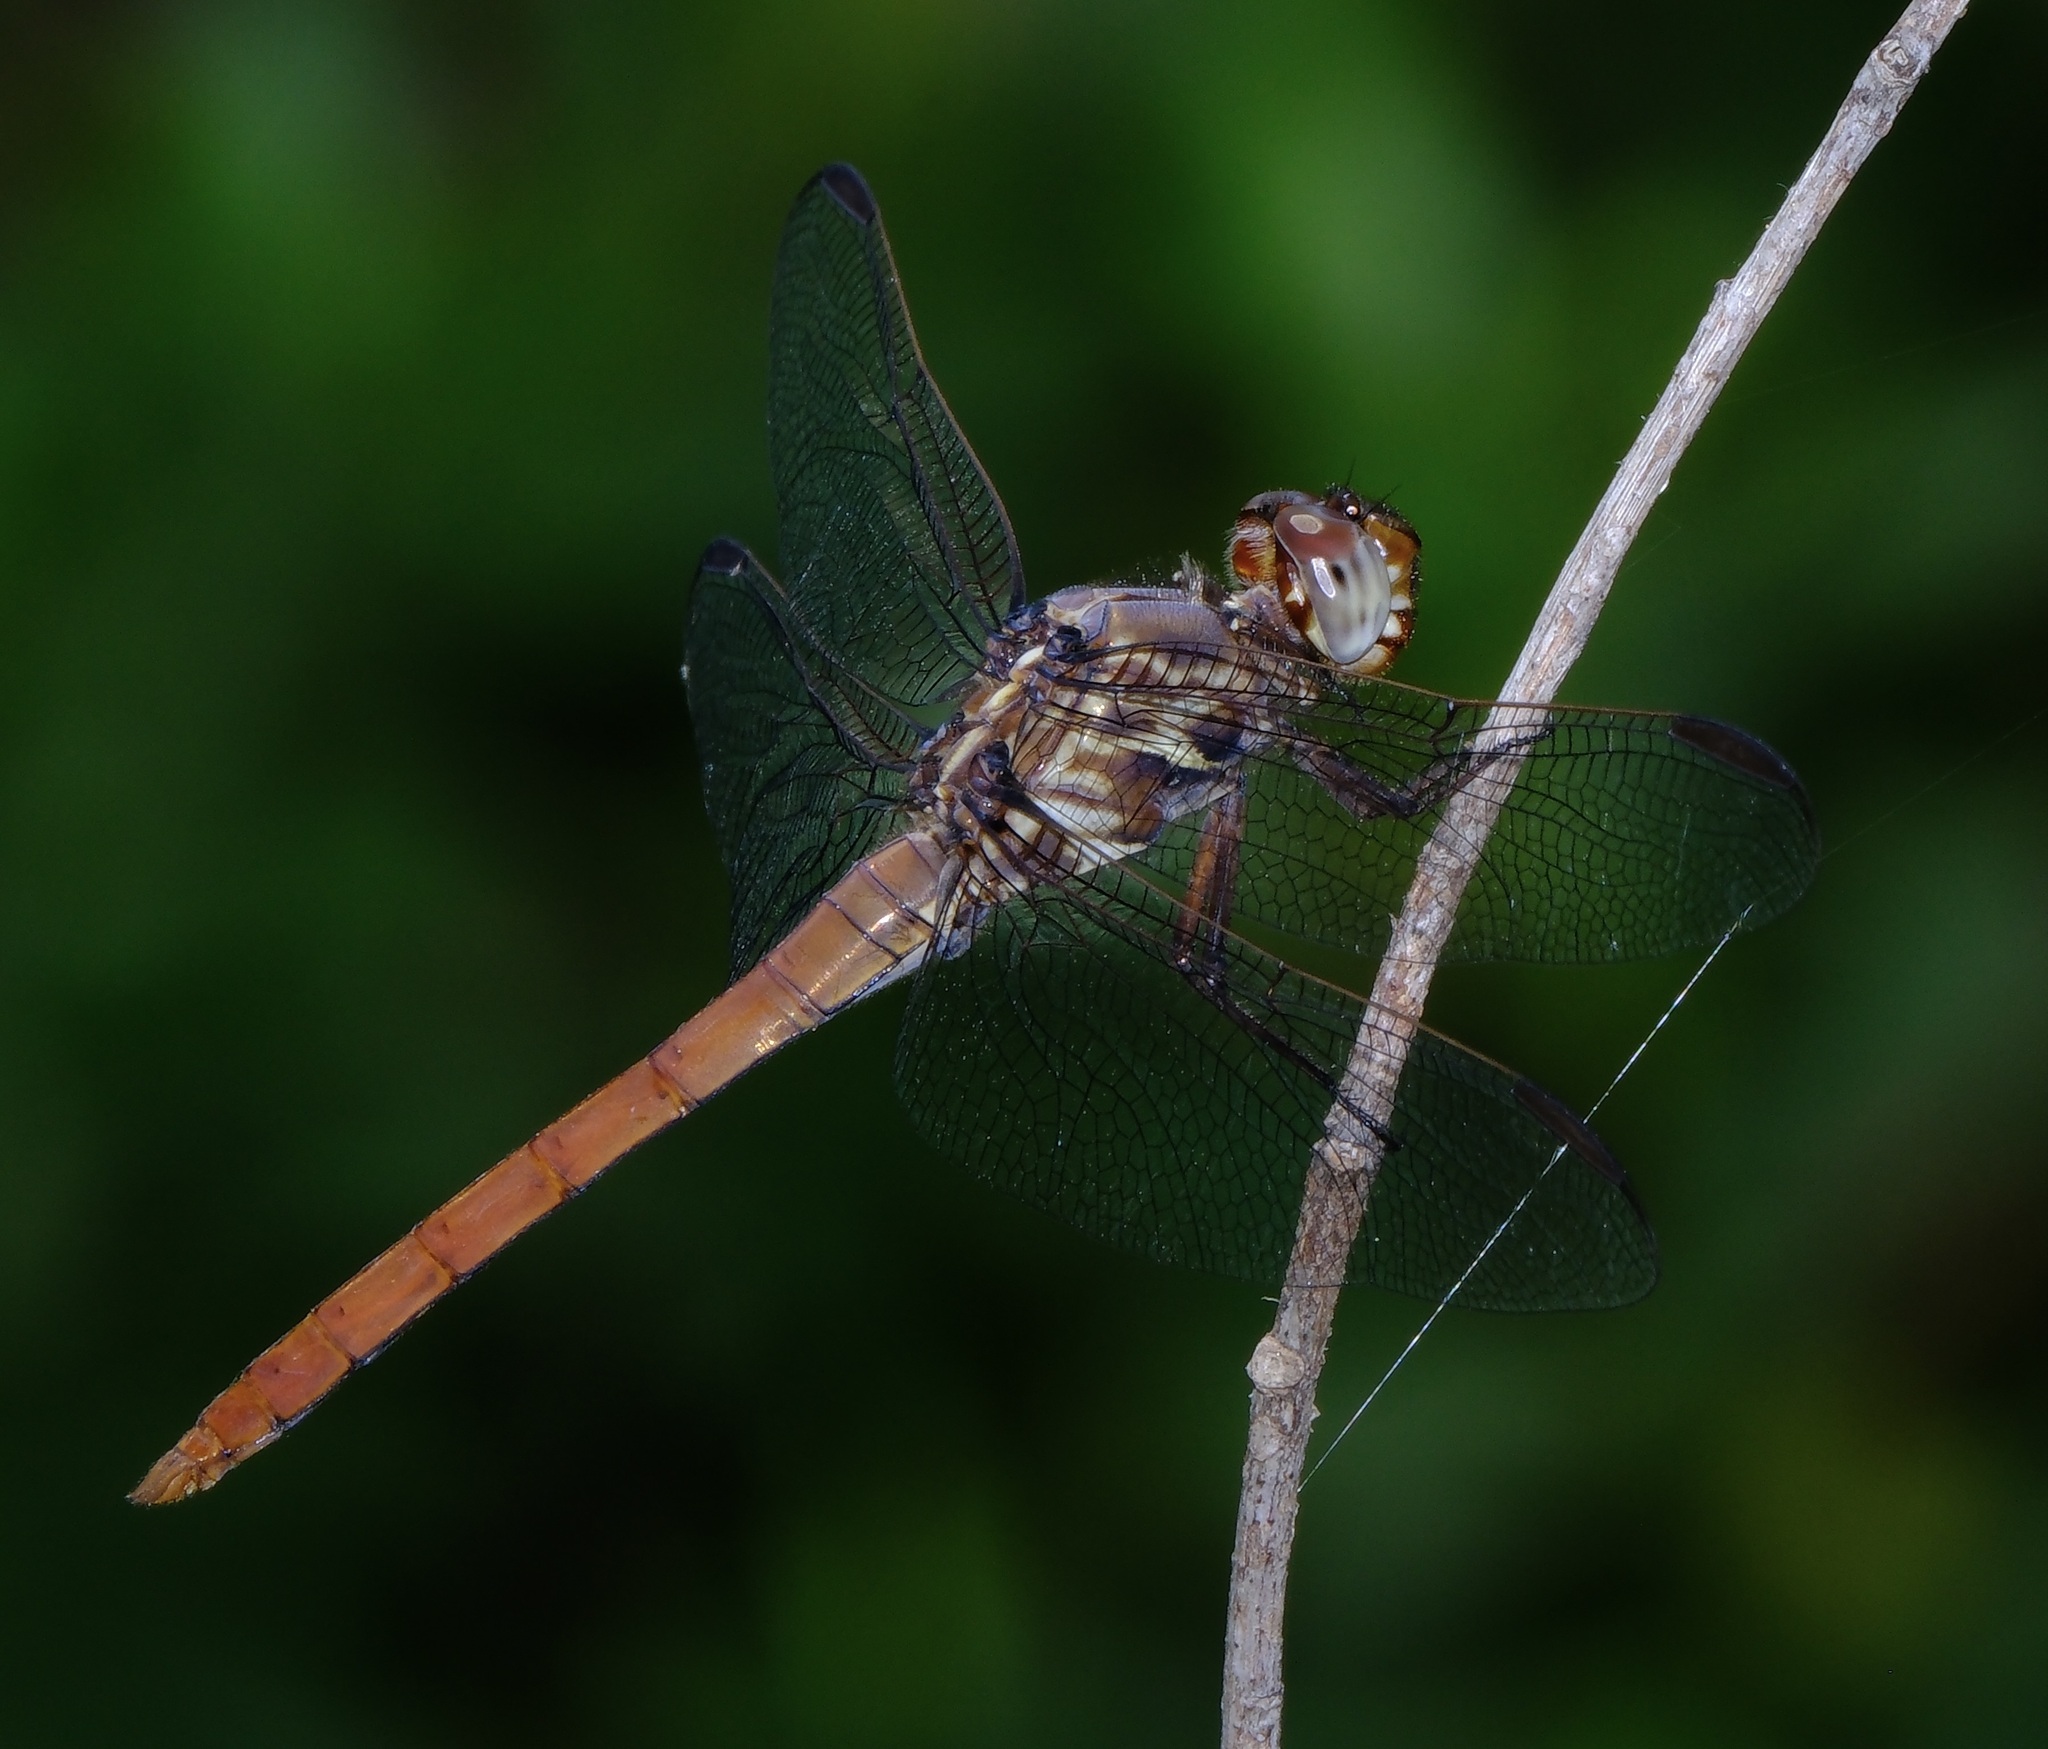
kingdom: Animalia
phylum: Arthropoda
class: Insecta
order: Odonata
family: Libellulidae
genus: Orthemis
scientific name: Orthemis ferruginea
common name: Roseate skimmer
